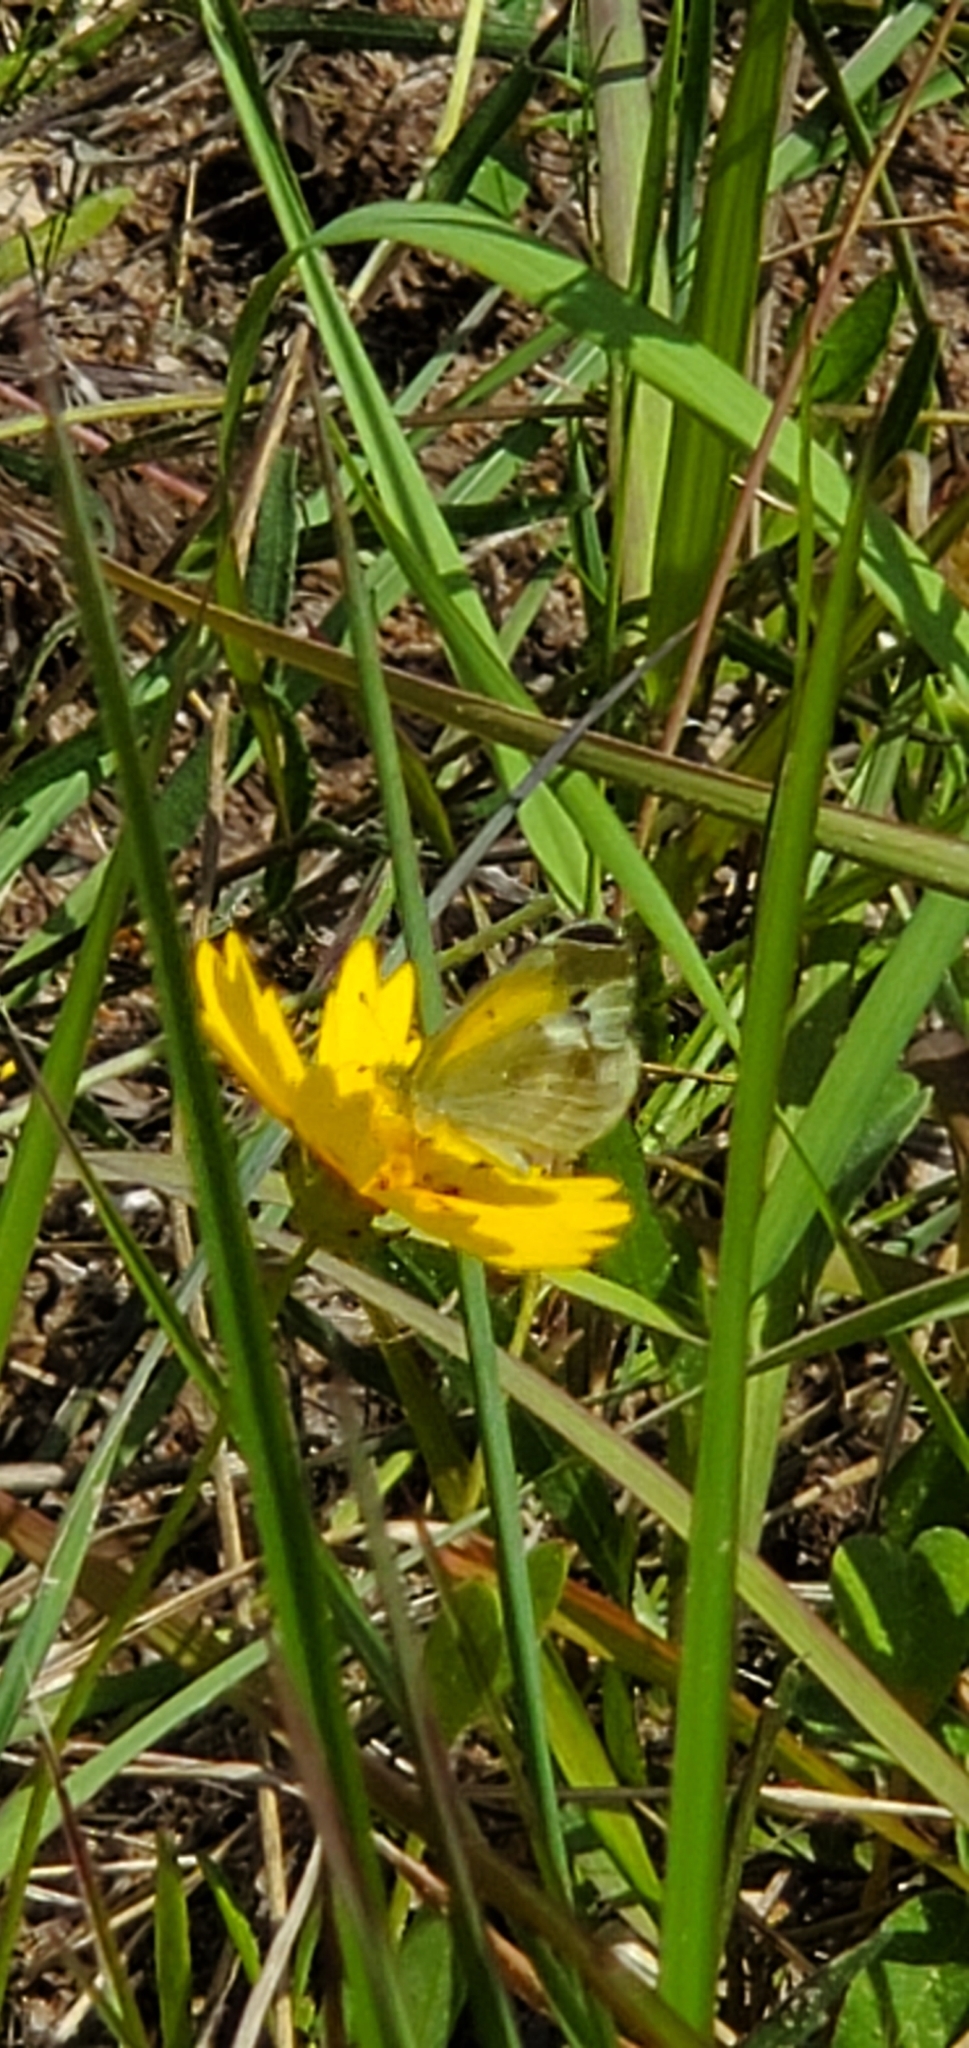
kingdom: Animalia
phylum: Arthropoda
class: Insecta
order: Lepidoptera
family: Pieridae
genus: Nathalis
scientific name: Nathalis iole
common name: Dainty sulphur
